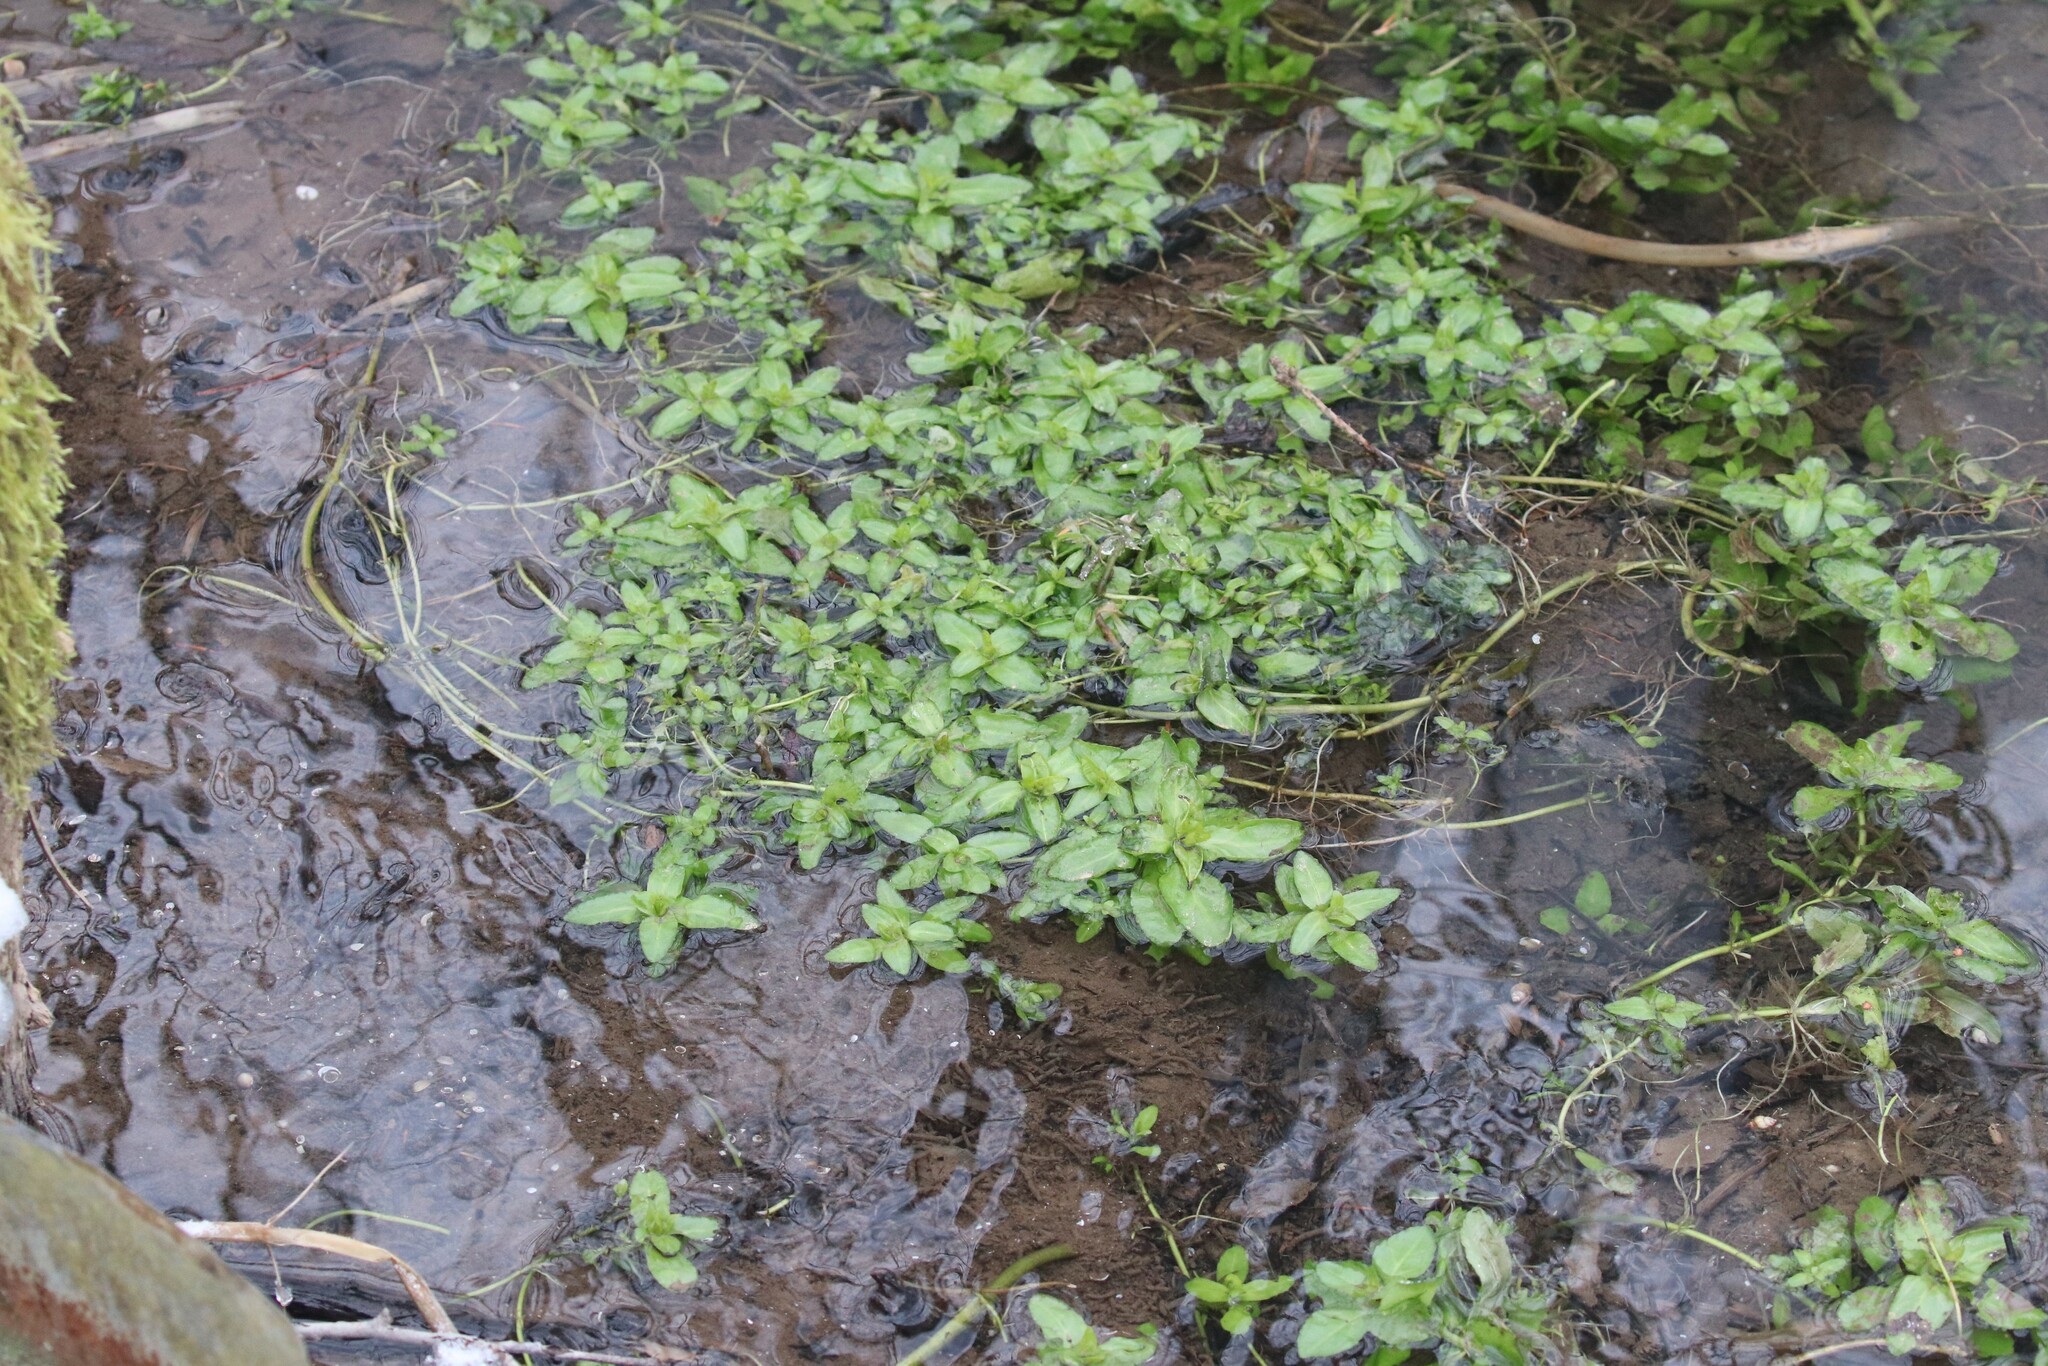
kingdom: Plantae
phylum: Tracheophyta
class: Magnoliopsida
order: Lamiales
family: Plantaginaceae
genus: Veronica
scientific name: Veronica beccabunga
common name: Brooklime
